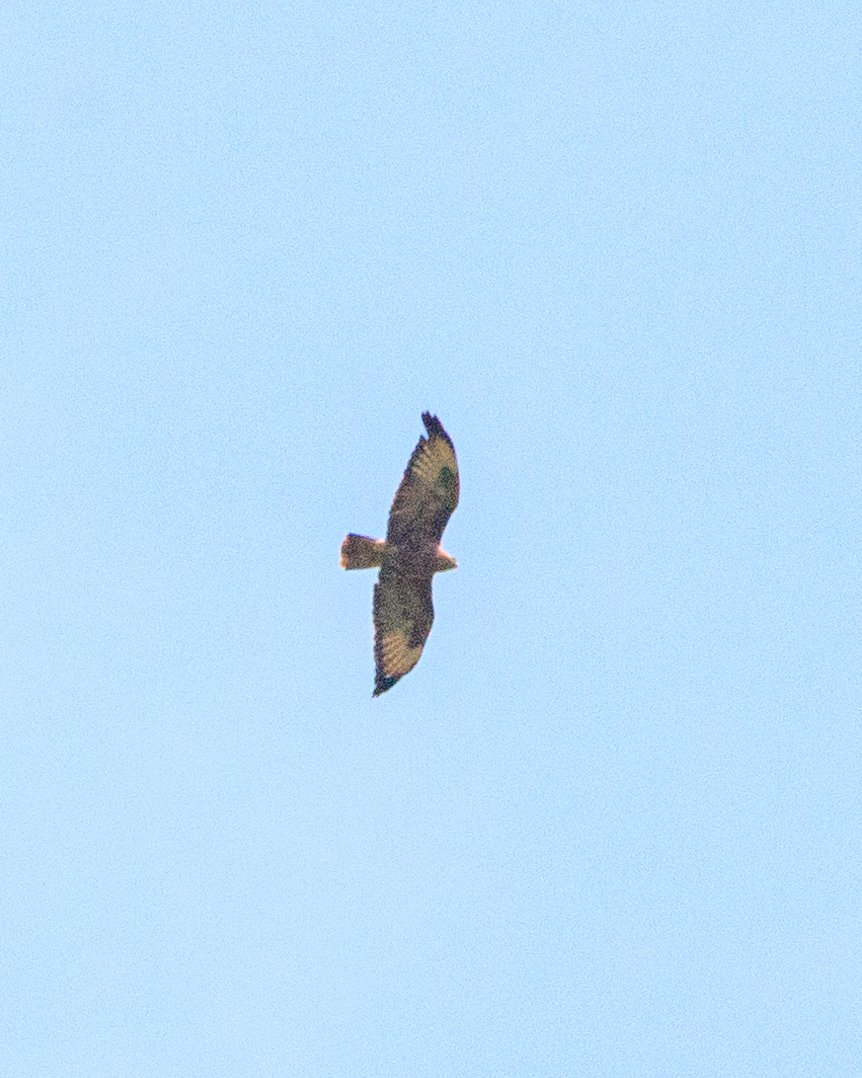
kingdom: Animalia
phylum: Chordata
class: Aves
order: Accipitriformes
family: Accipitridae
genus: Buteo
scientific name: Buteo buteo
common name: Common buzzard
